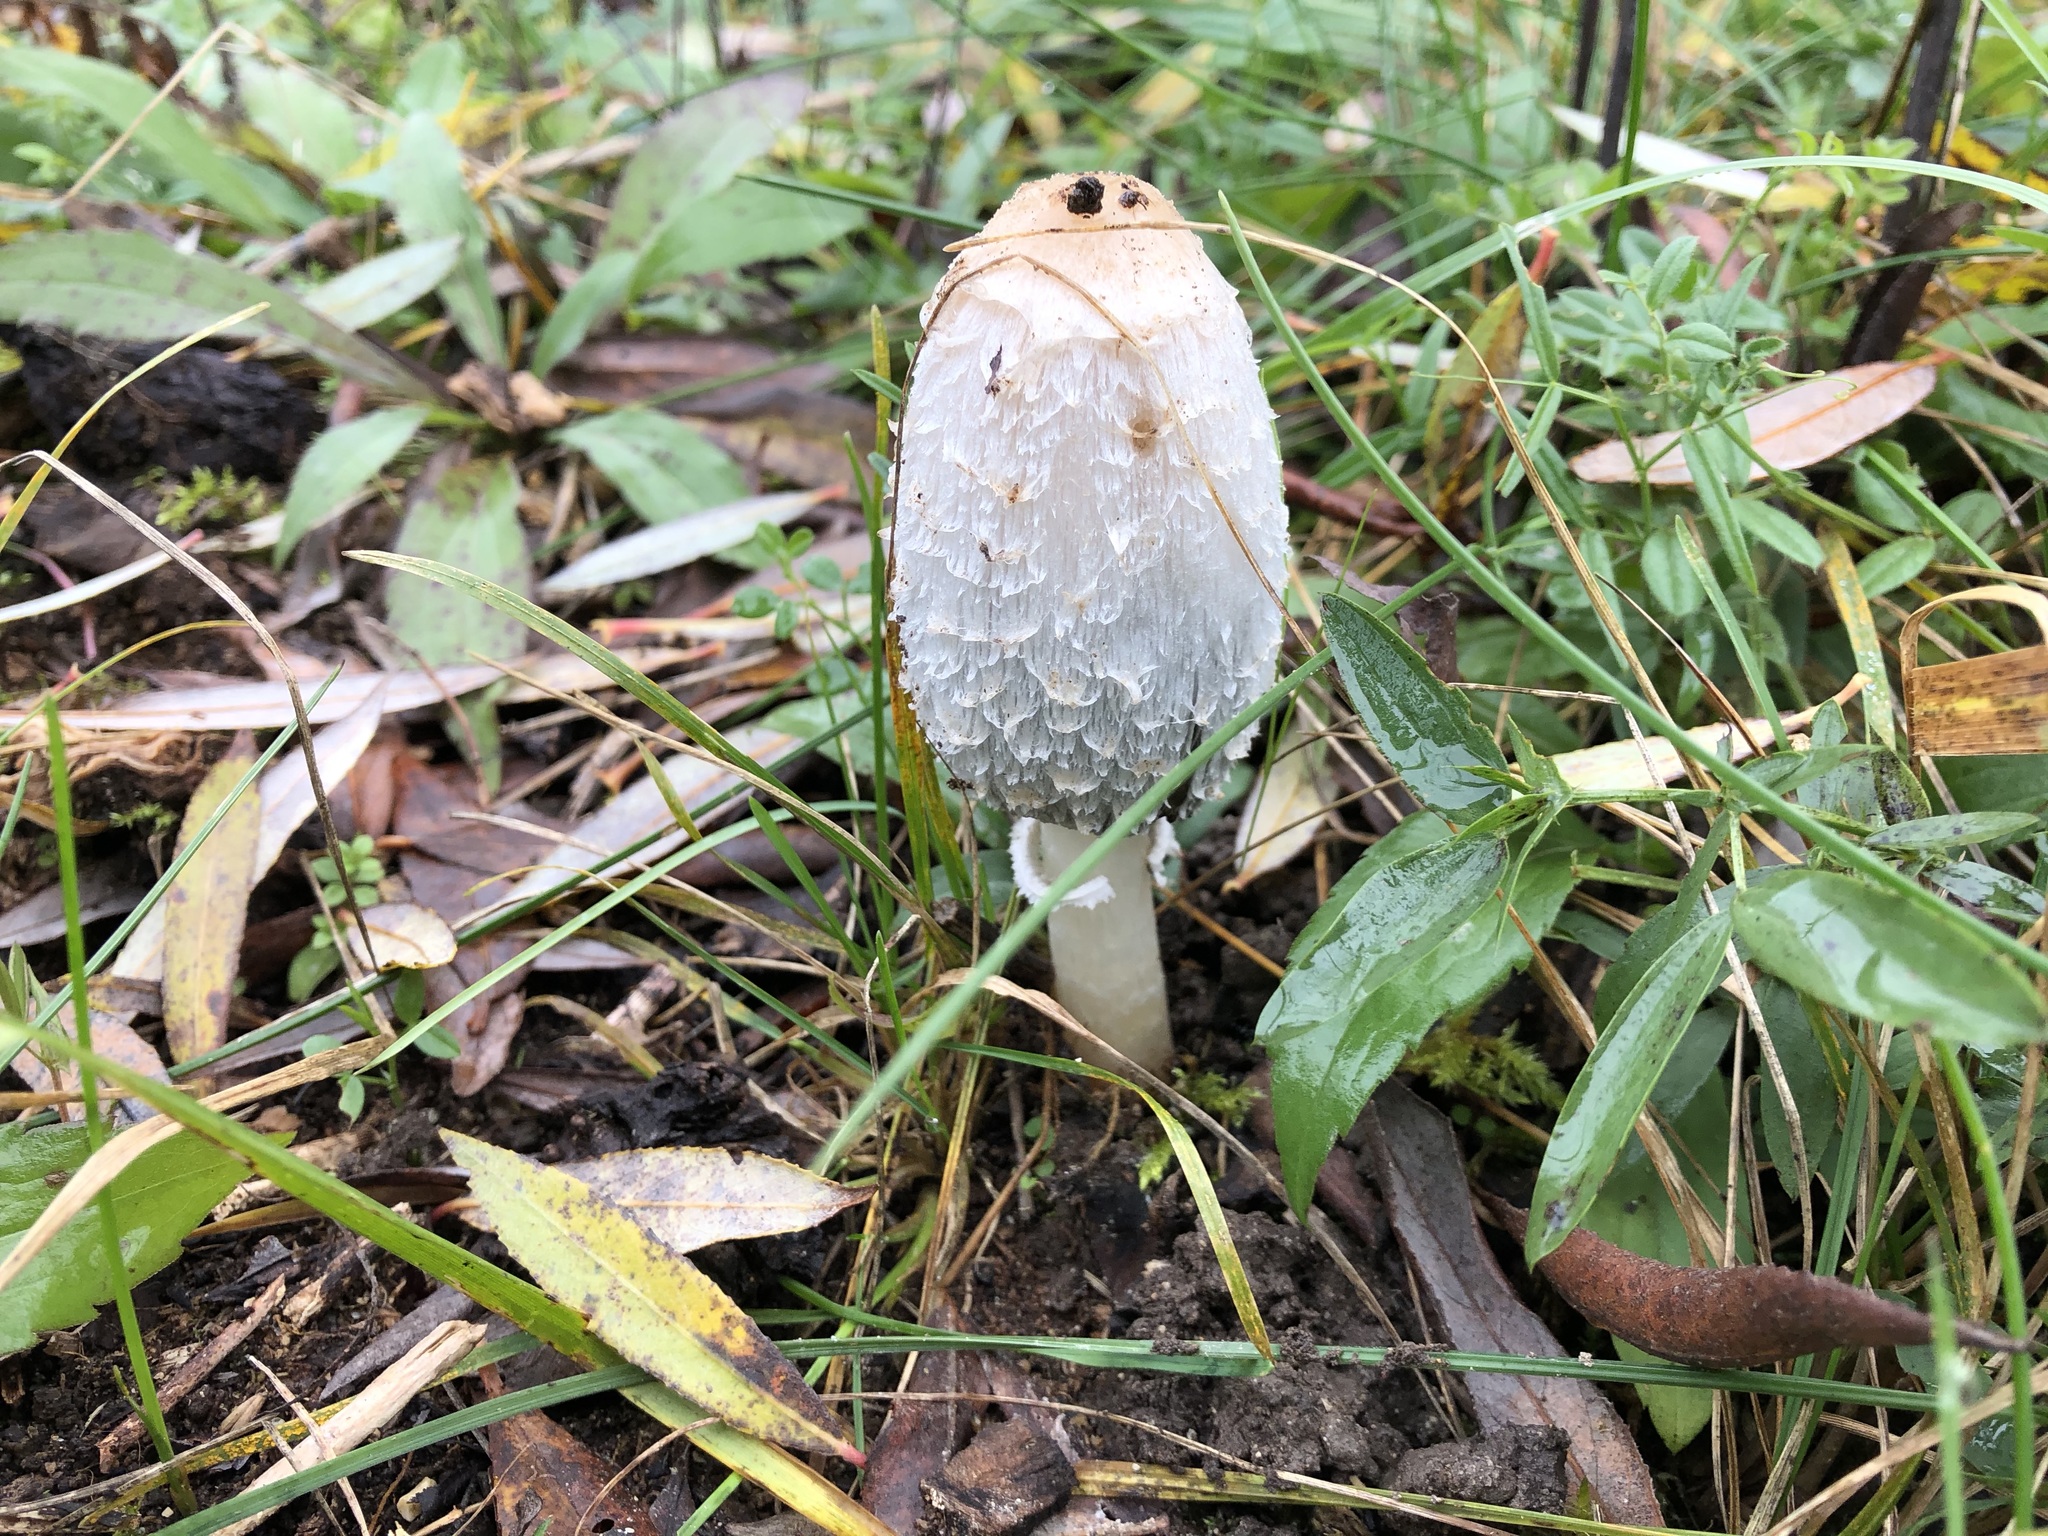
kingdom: Fungi
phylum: Basidiomycota
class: Agaricomycetes
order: Agaricales
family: Agaricaceae
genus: Coprinus
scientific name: Coprinus comatus
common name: Lawyer's wig
